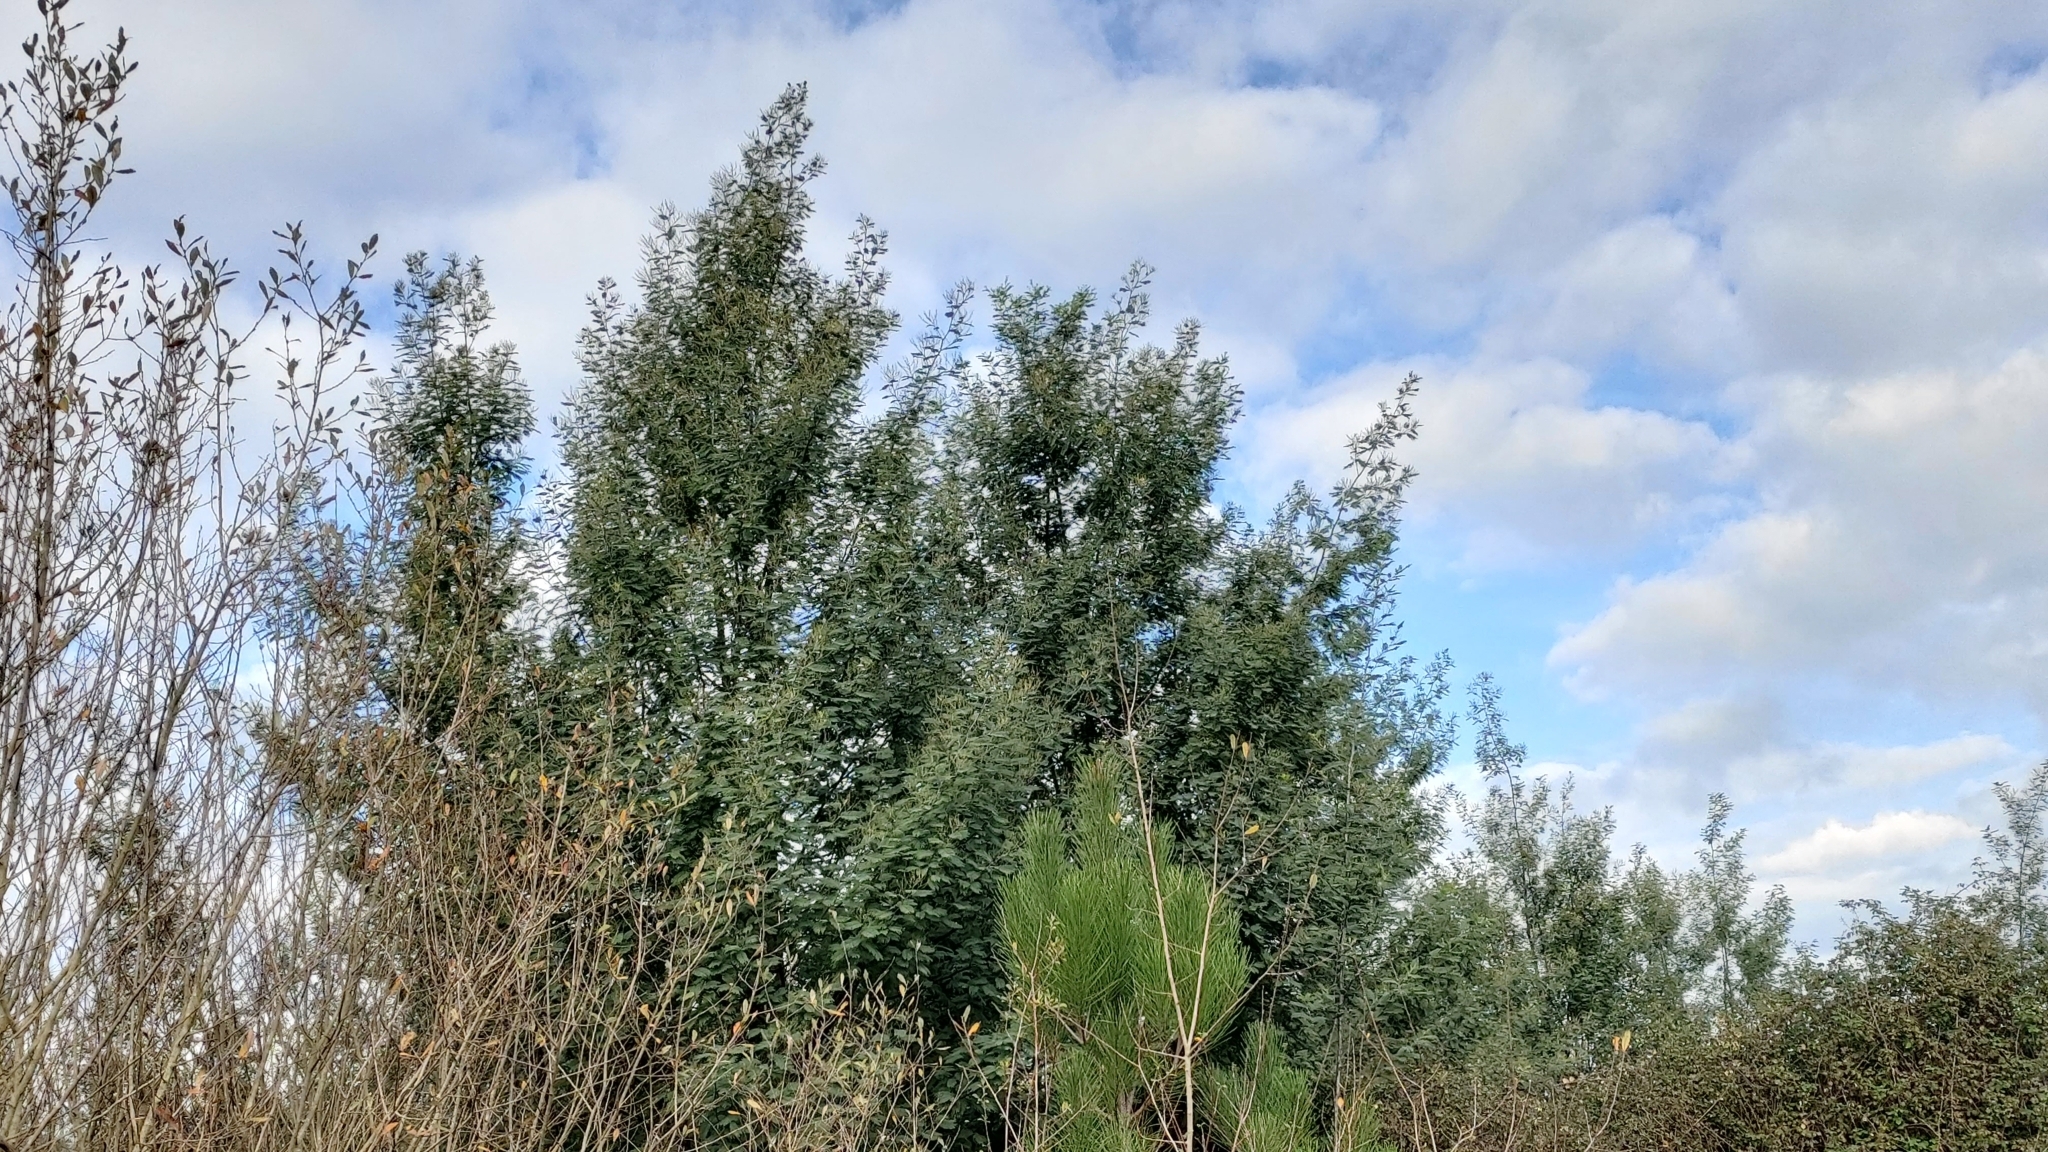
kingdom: Plantae
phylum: Tracheophyta
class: Magnoliopsida
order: Fabales
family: Fabaceae
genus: Acacia
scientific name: Acacia dealbata
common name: Silver wattle
